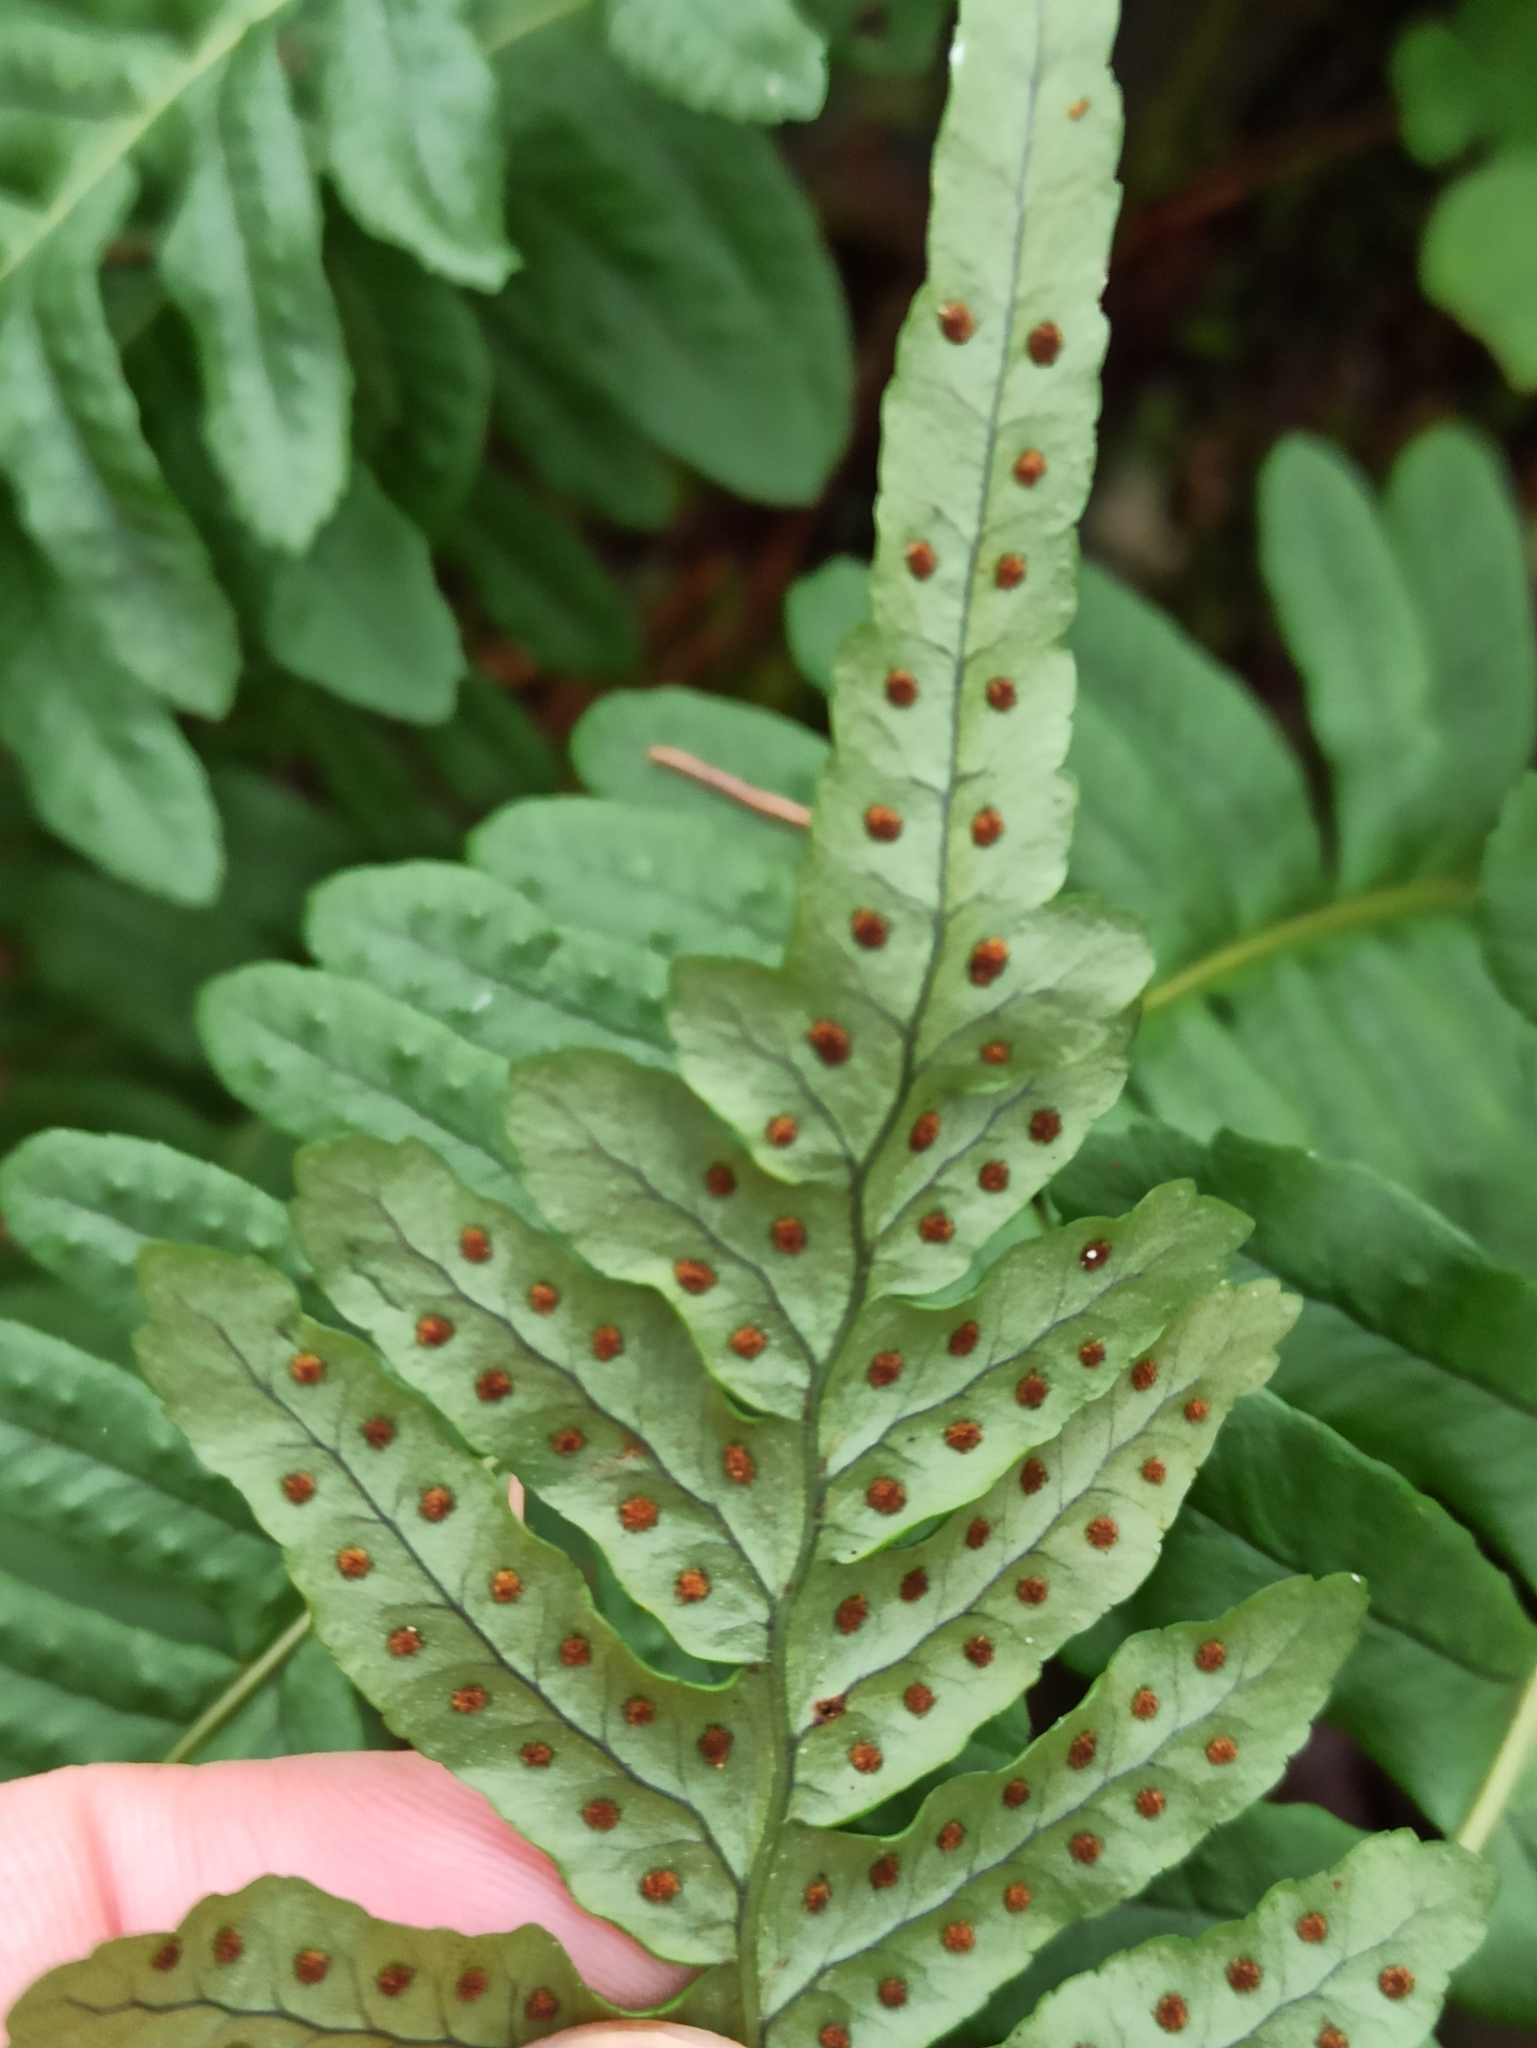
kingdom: Plantae
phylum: Tracheophyta
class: Polypodiopsida
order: Polypodiales
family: Polypodiaceae
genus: Polypodium
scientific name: Polypodium vulgare
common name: Common polypody
